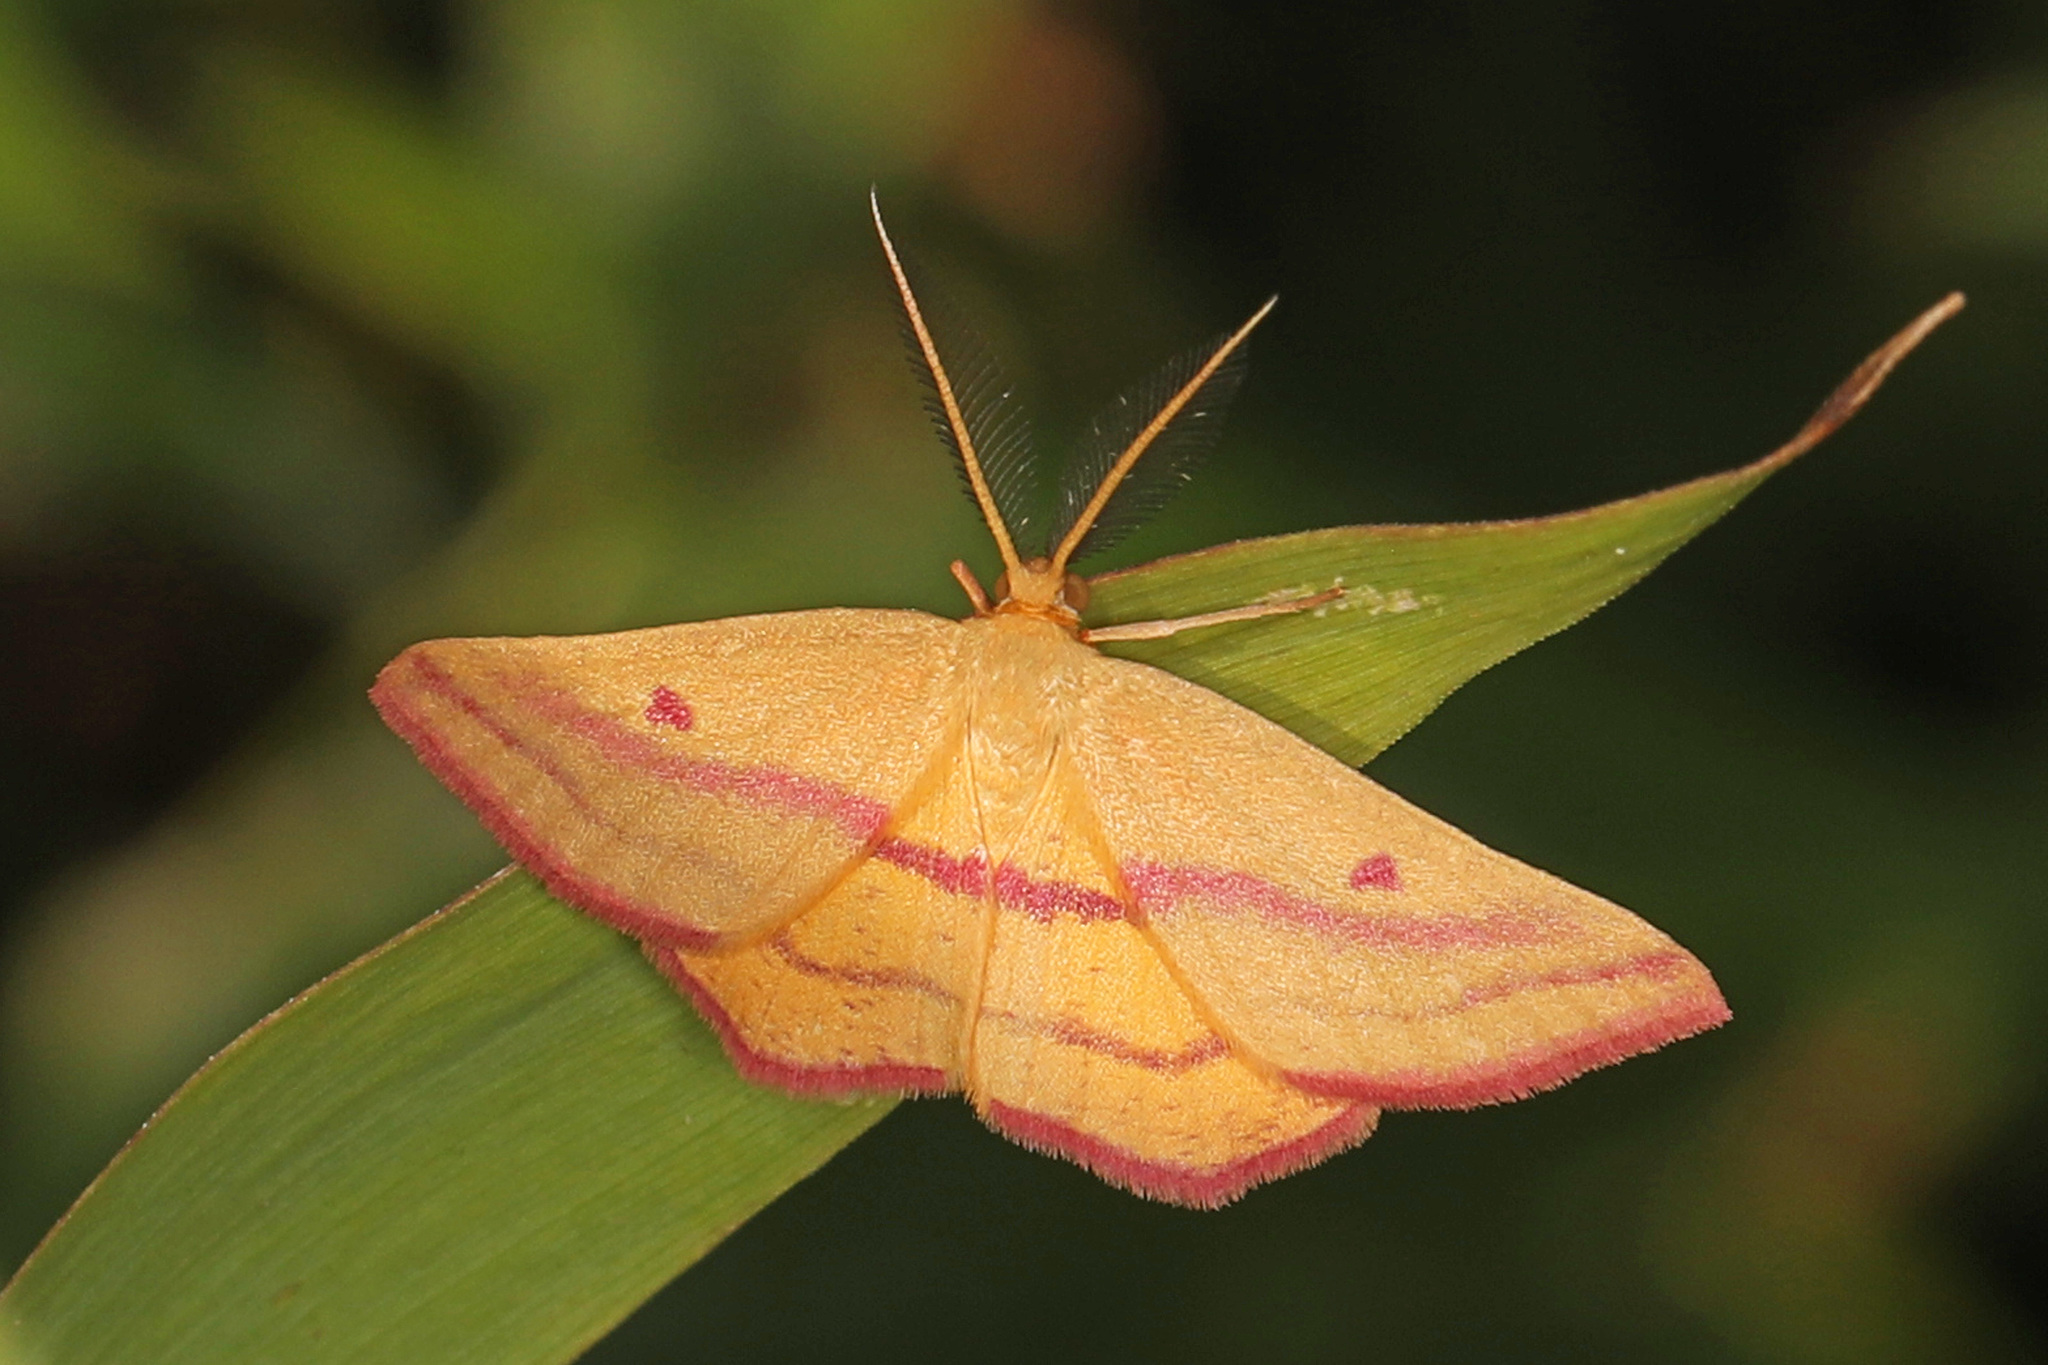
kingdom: Animalia
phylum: Arthropoda
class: Insecta
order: Lepidoptera
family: Geometridae
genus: Haematopis
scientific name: Haematopis grataria
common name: Chickweed geometer
